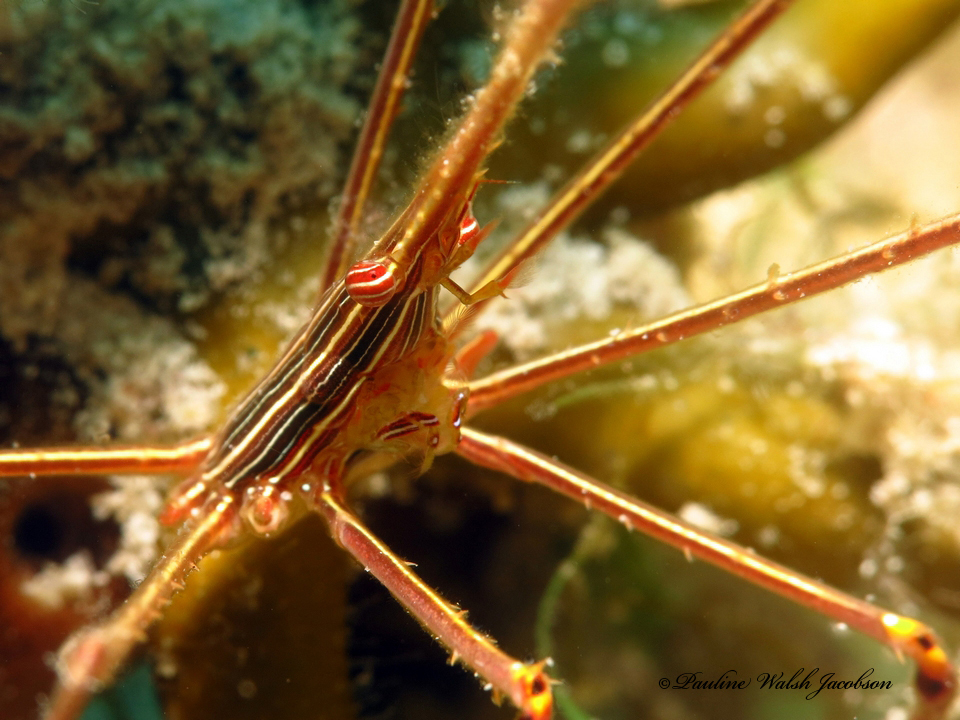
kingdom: Animalia
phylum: Arthropoda
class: Malacostraca
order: Decapoda
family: Inachoididae
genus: Stenorhynchus
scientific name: Stenorhynchus seticornis
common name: Arrow crab
